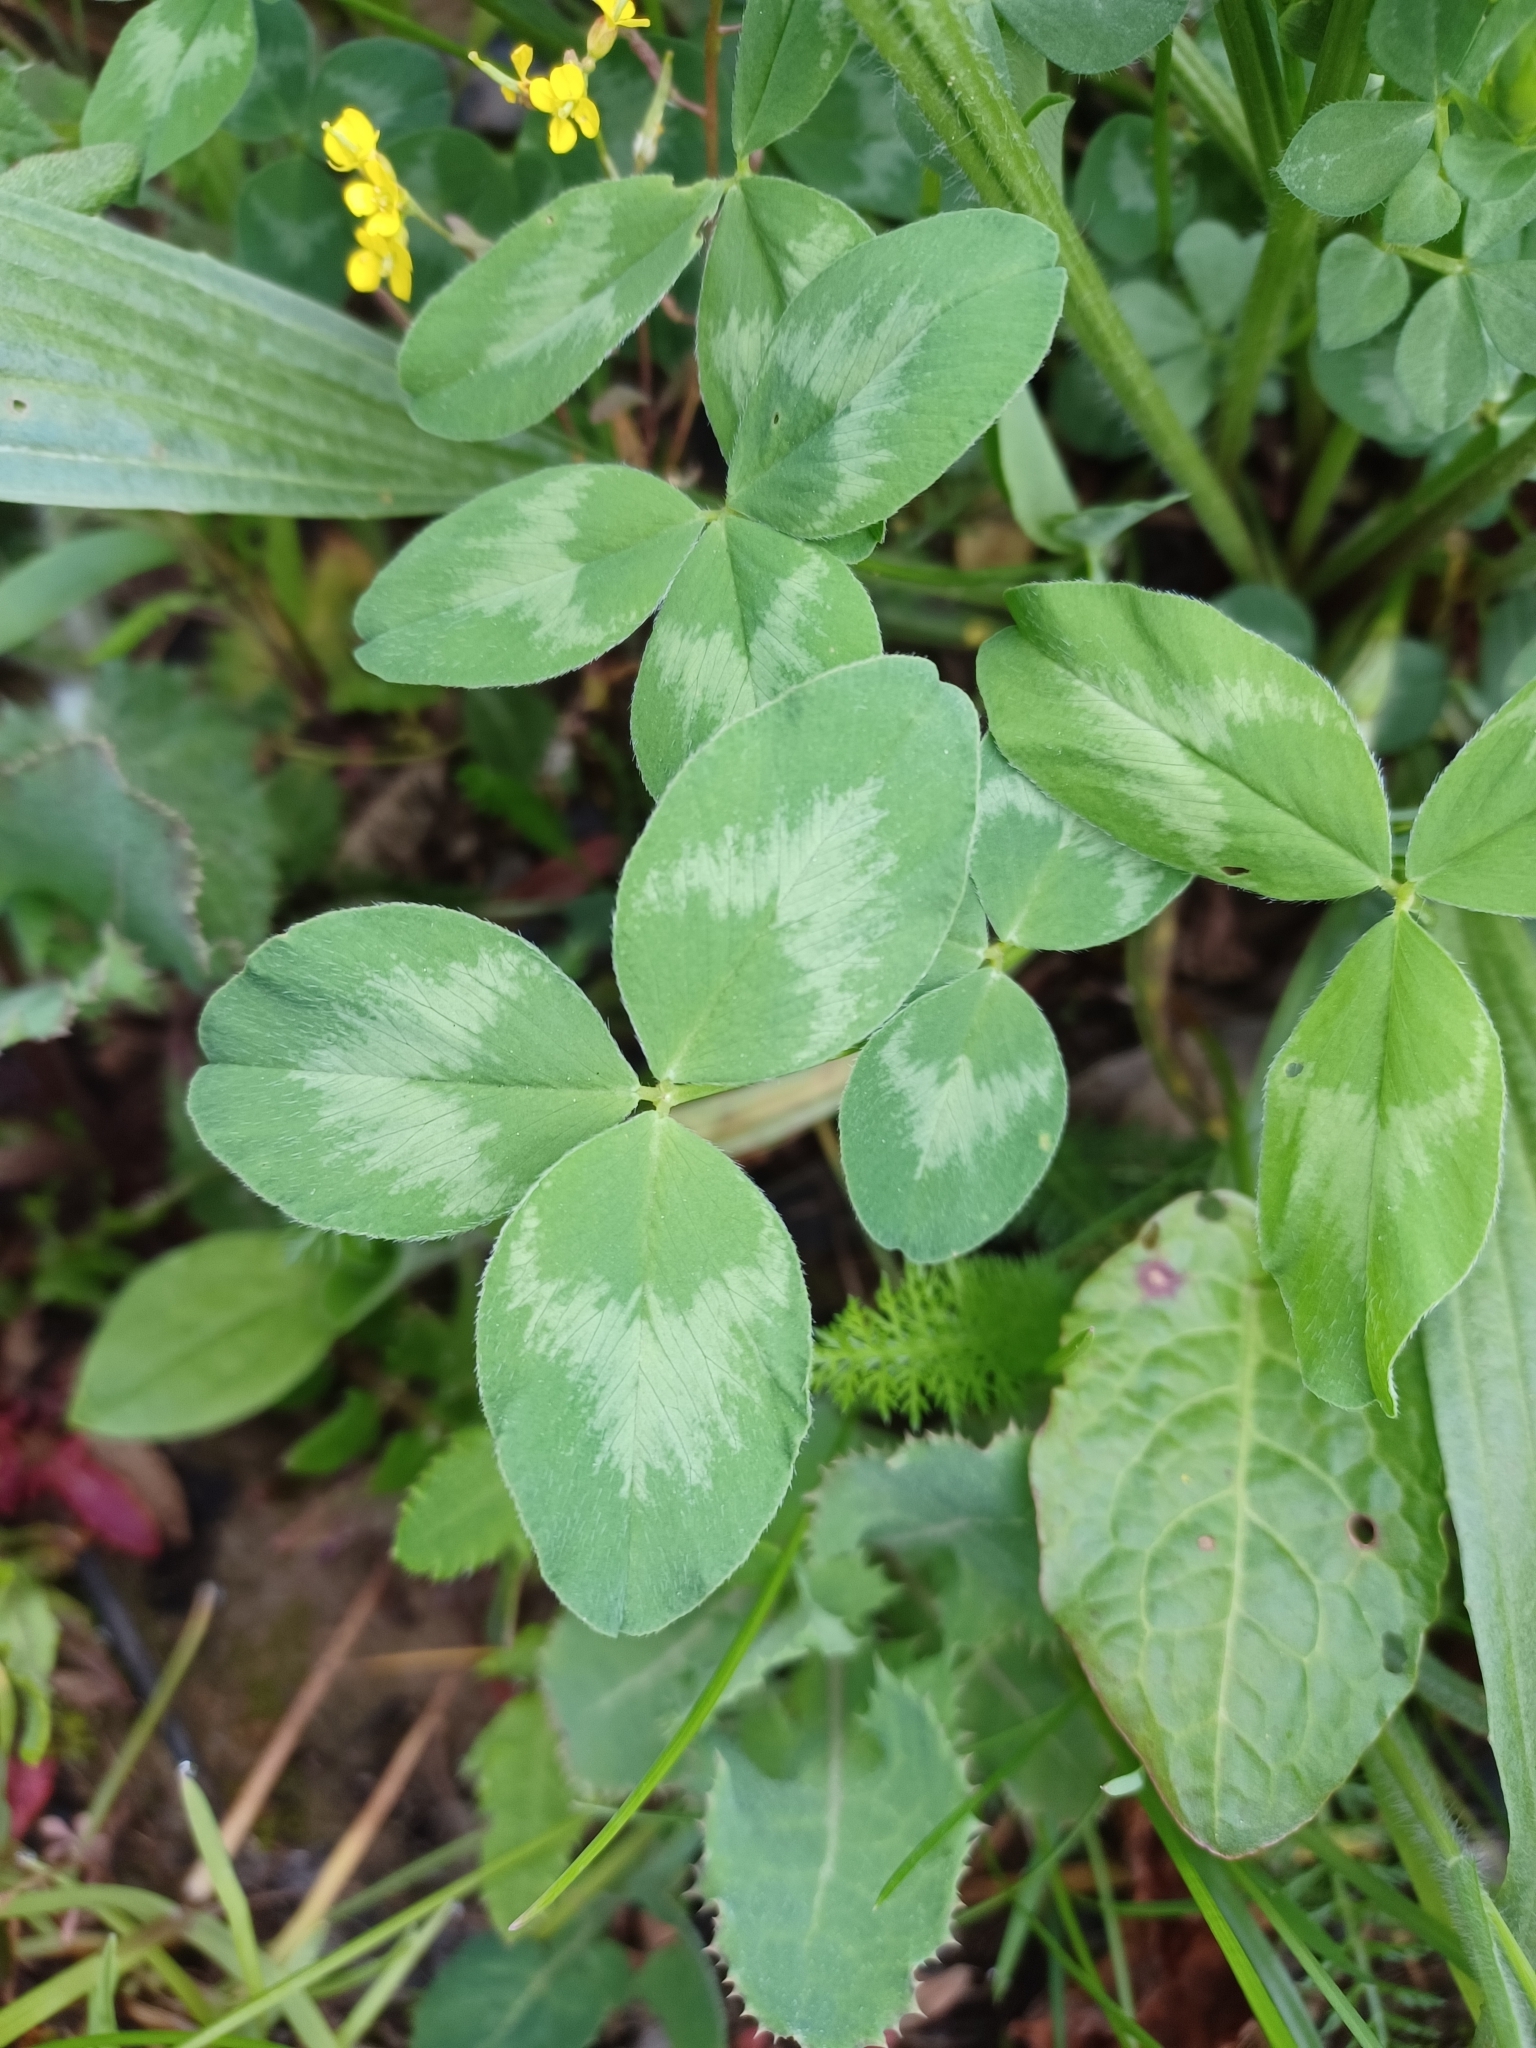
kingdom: Plantae
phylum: Tracheophyta
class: Magnoliopsida
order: Fabales
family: Fabaceae
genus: Trifolium
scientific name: Trifolium pratense
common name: Red clover
